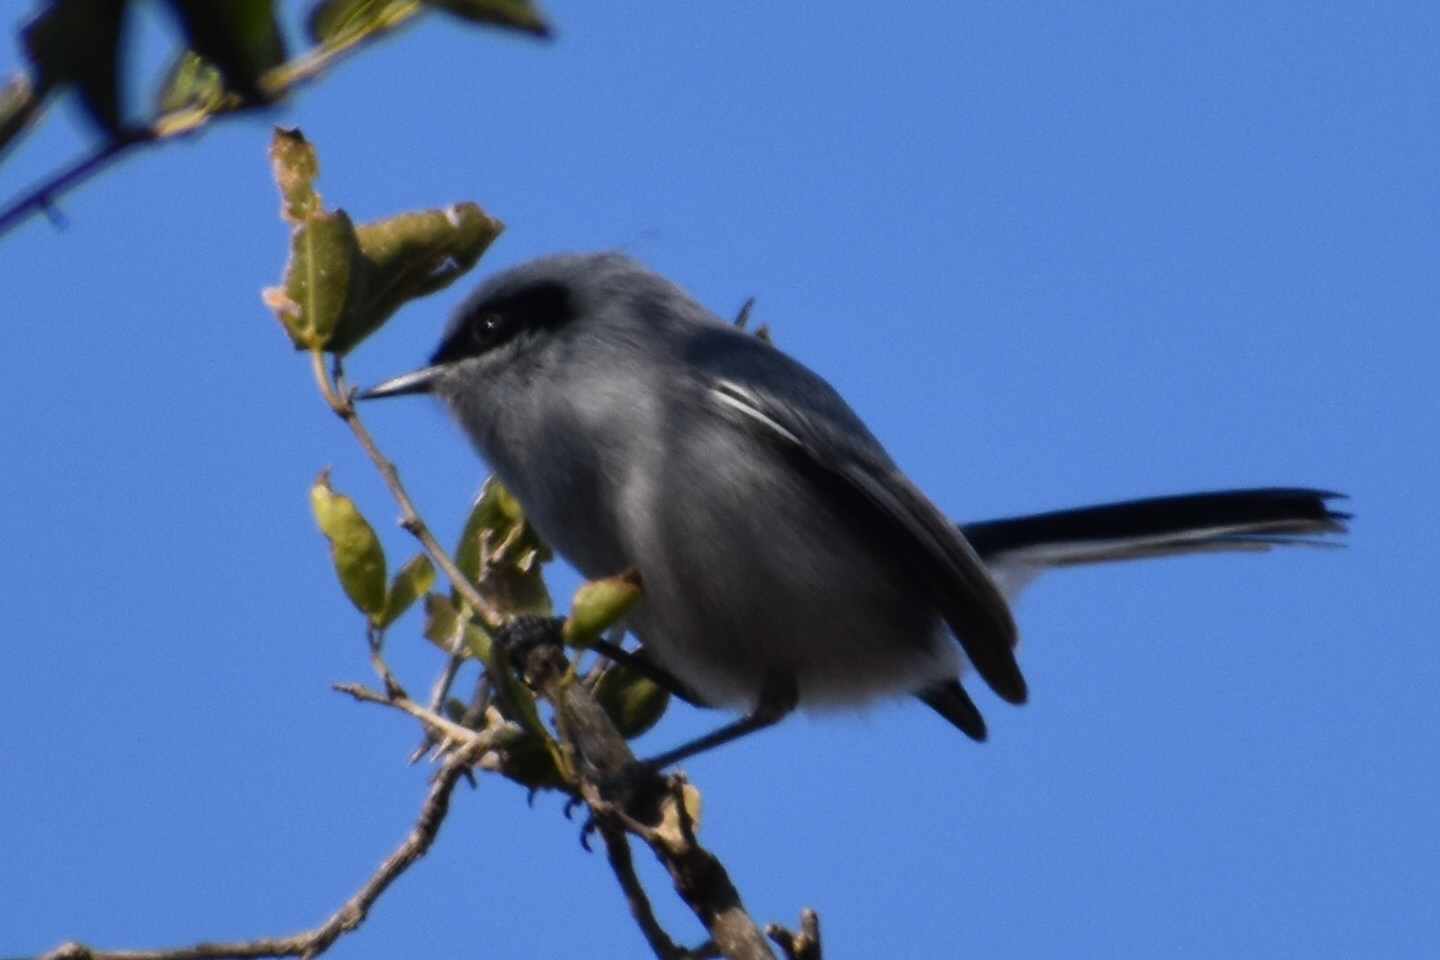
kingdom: Animalia
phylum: Chordata
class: Aves
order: Passeriformes
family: Polioptilidae
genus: Polioptila
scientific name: Polioptila dumicola
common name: Masked gnatcatcher
